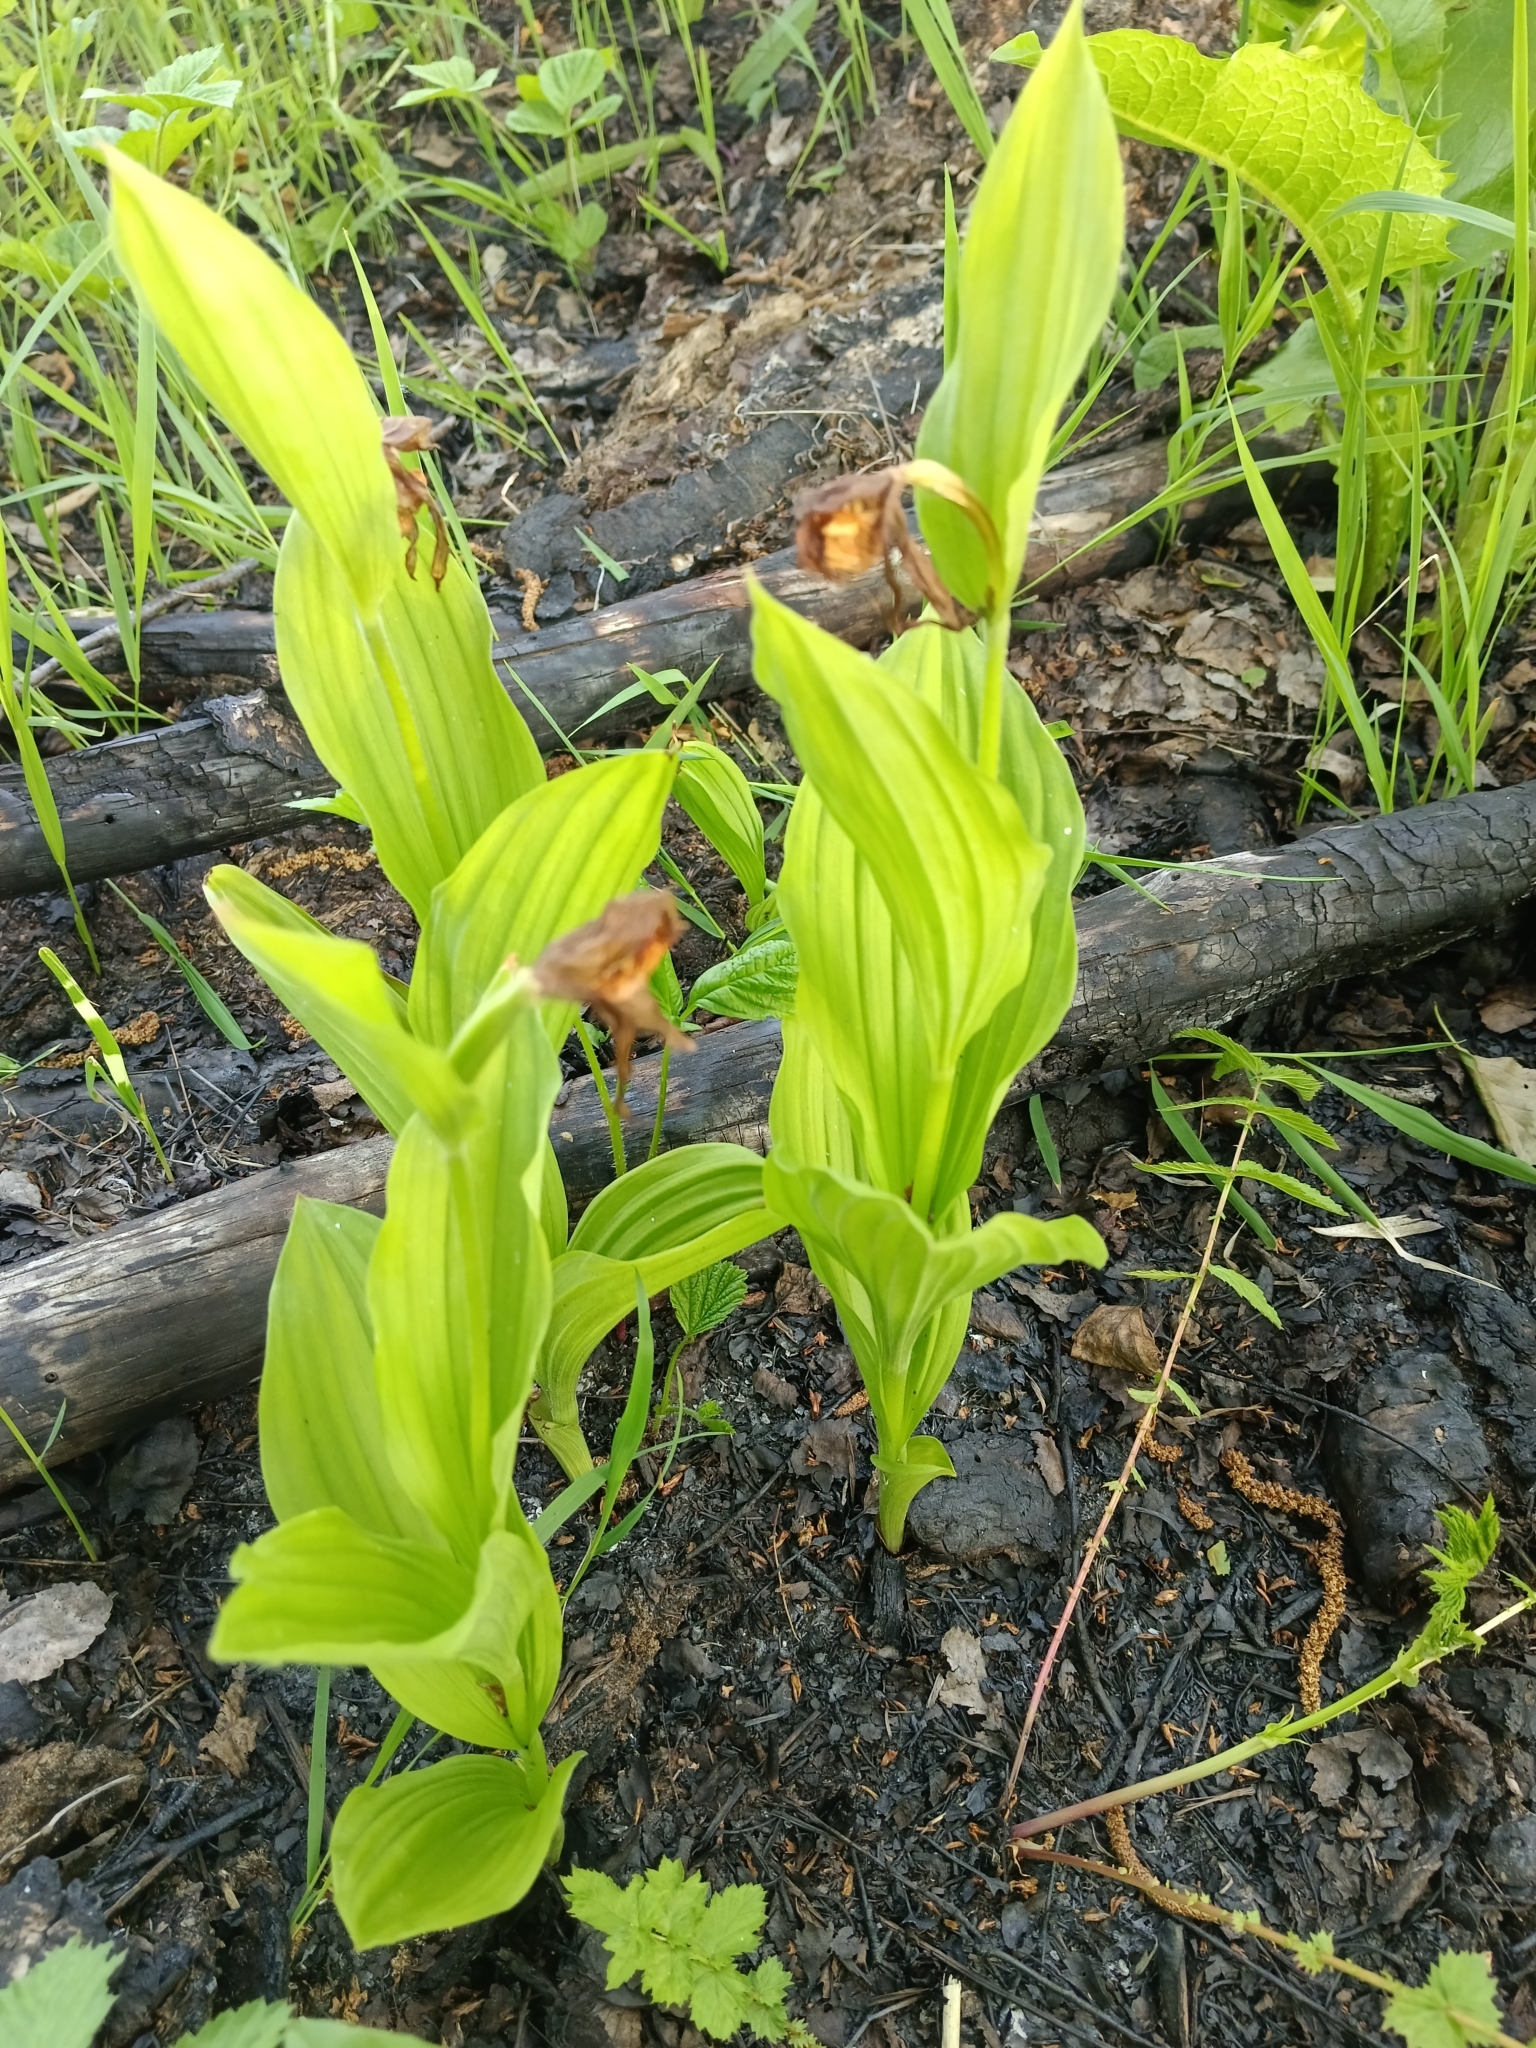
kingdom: Plantae
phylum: Tracheophyta
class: Liliopsida
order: Asparagales
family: Orchidaceae
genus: Cypripedium
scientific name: Cypripedium calceolus
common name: Lady's-slipper
